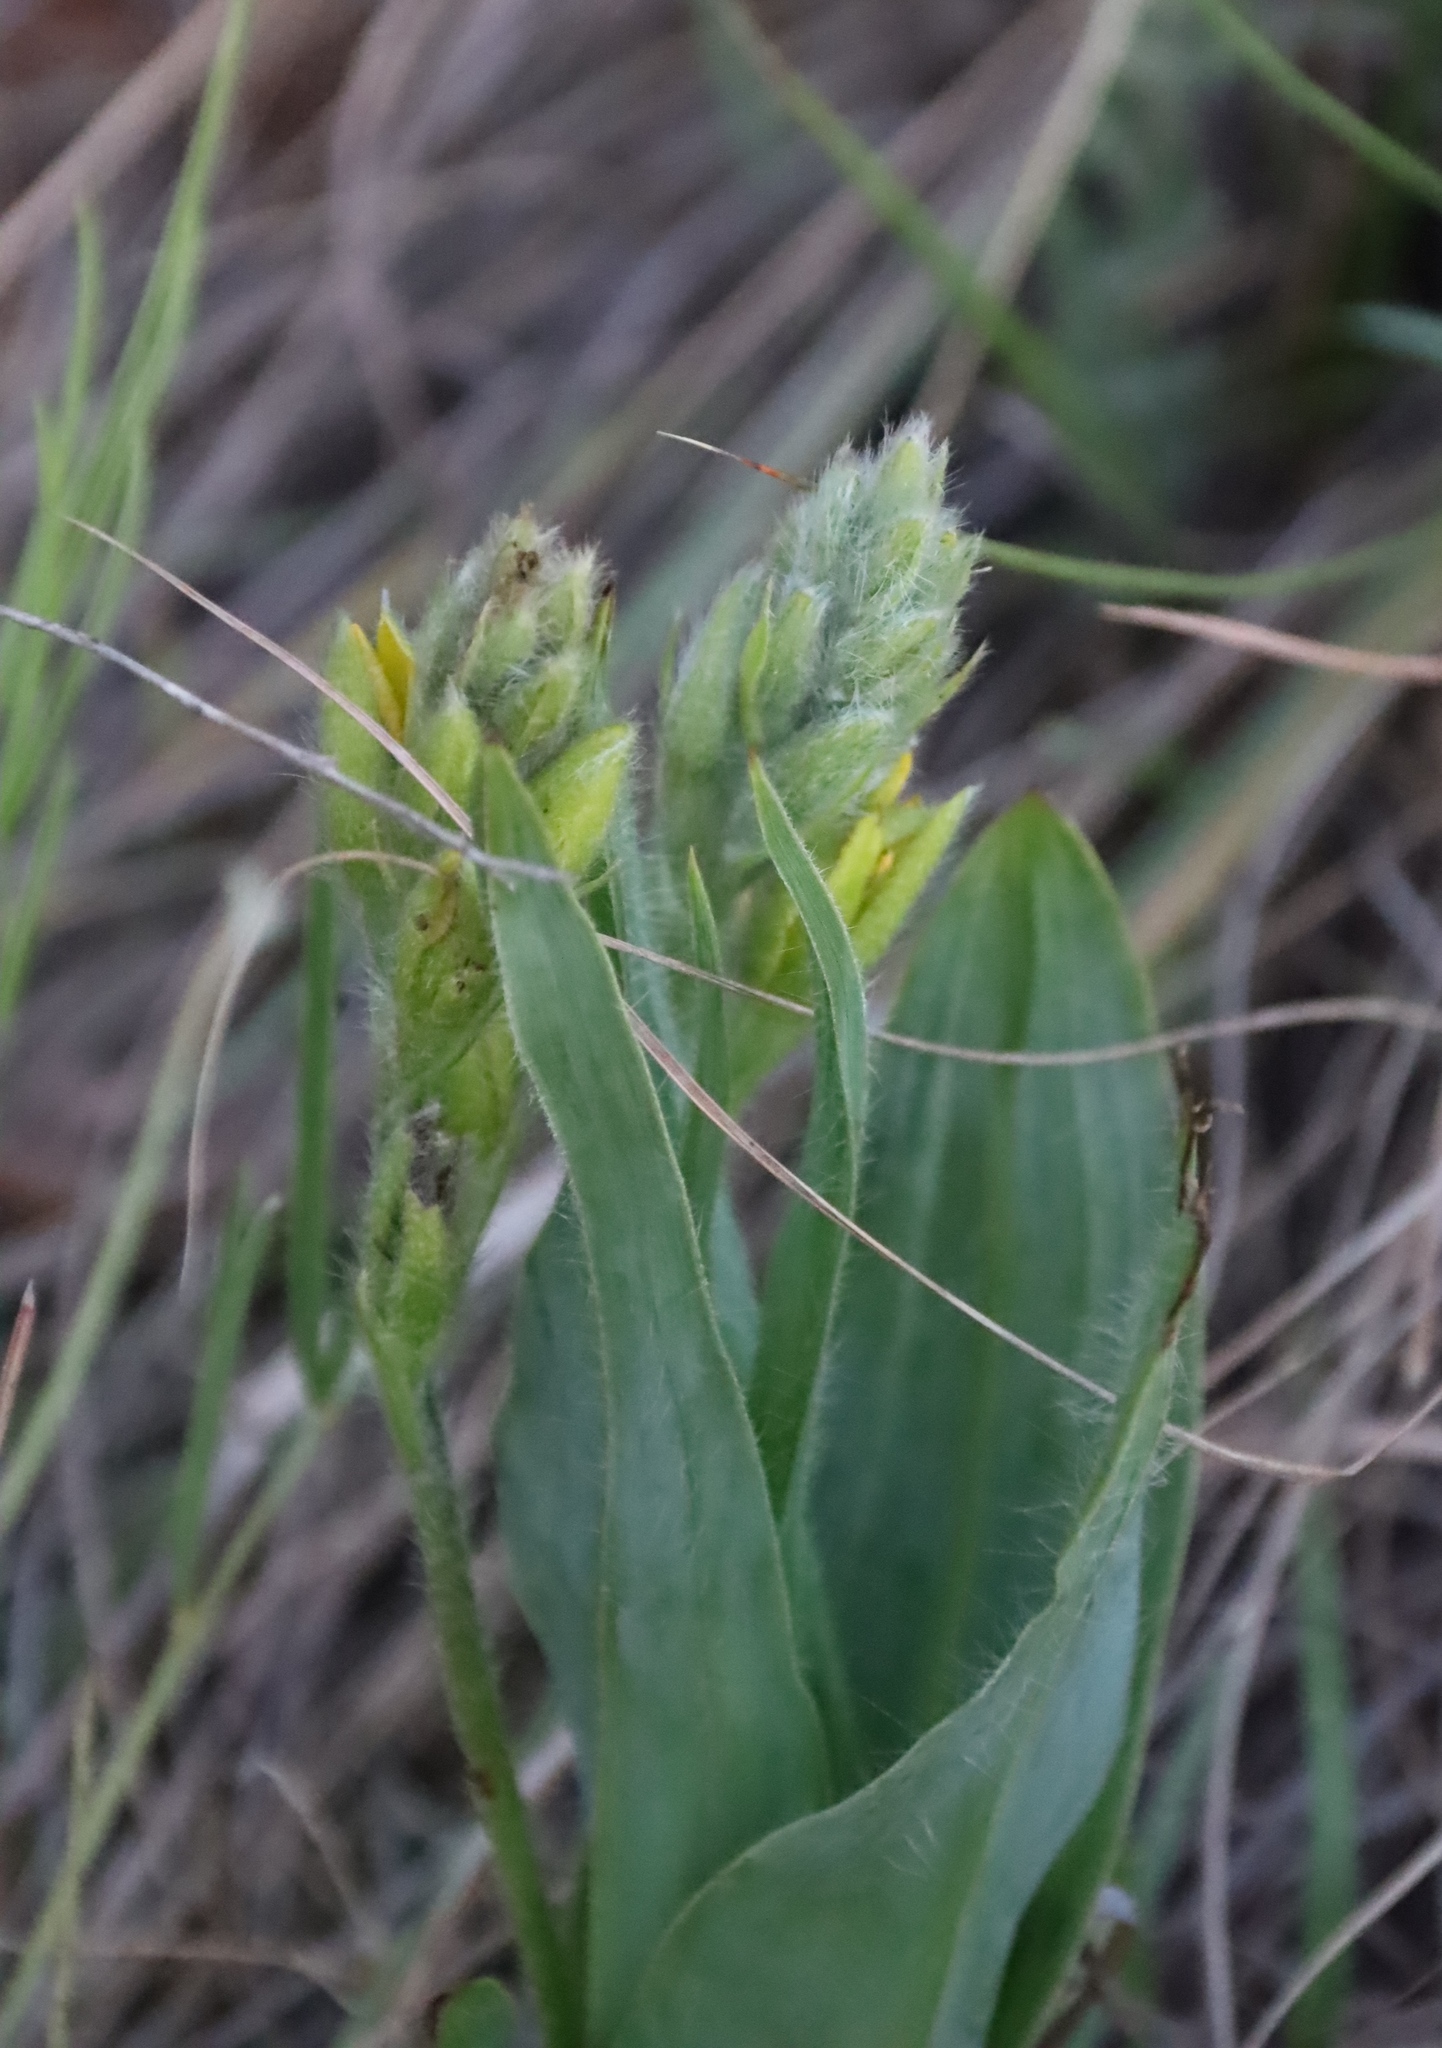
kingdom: Plantae
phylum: Tracheophyta
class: Liliopsida
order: Asparagales
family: Hypoxidaceae
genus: Hypoxis
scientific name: Hypoxis colchicifolia
